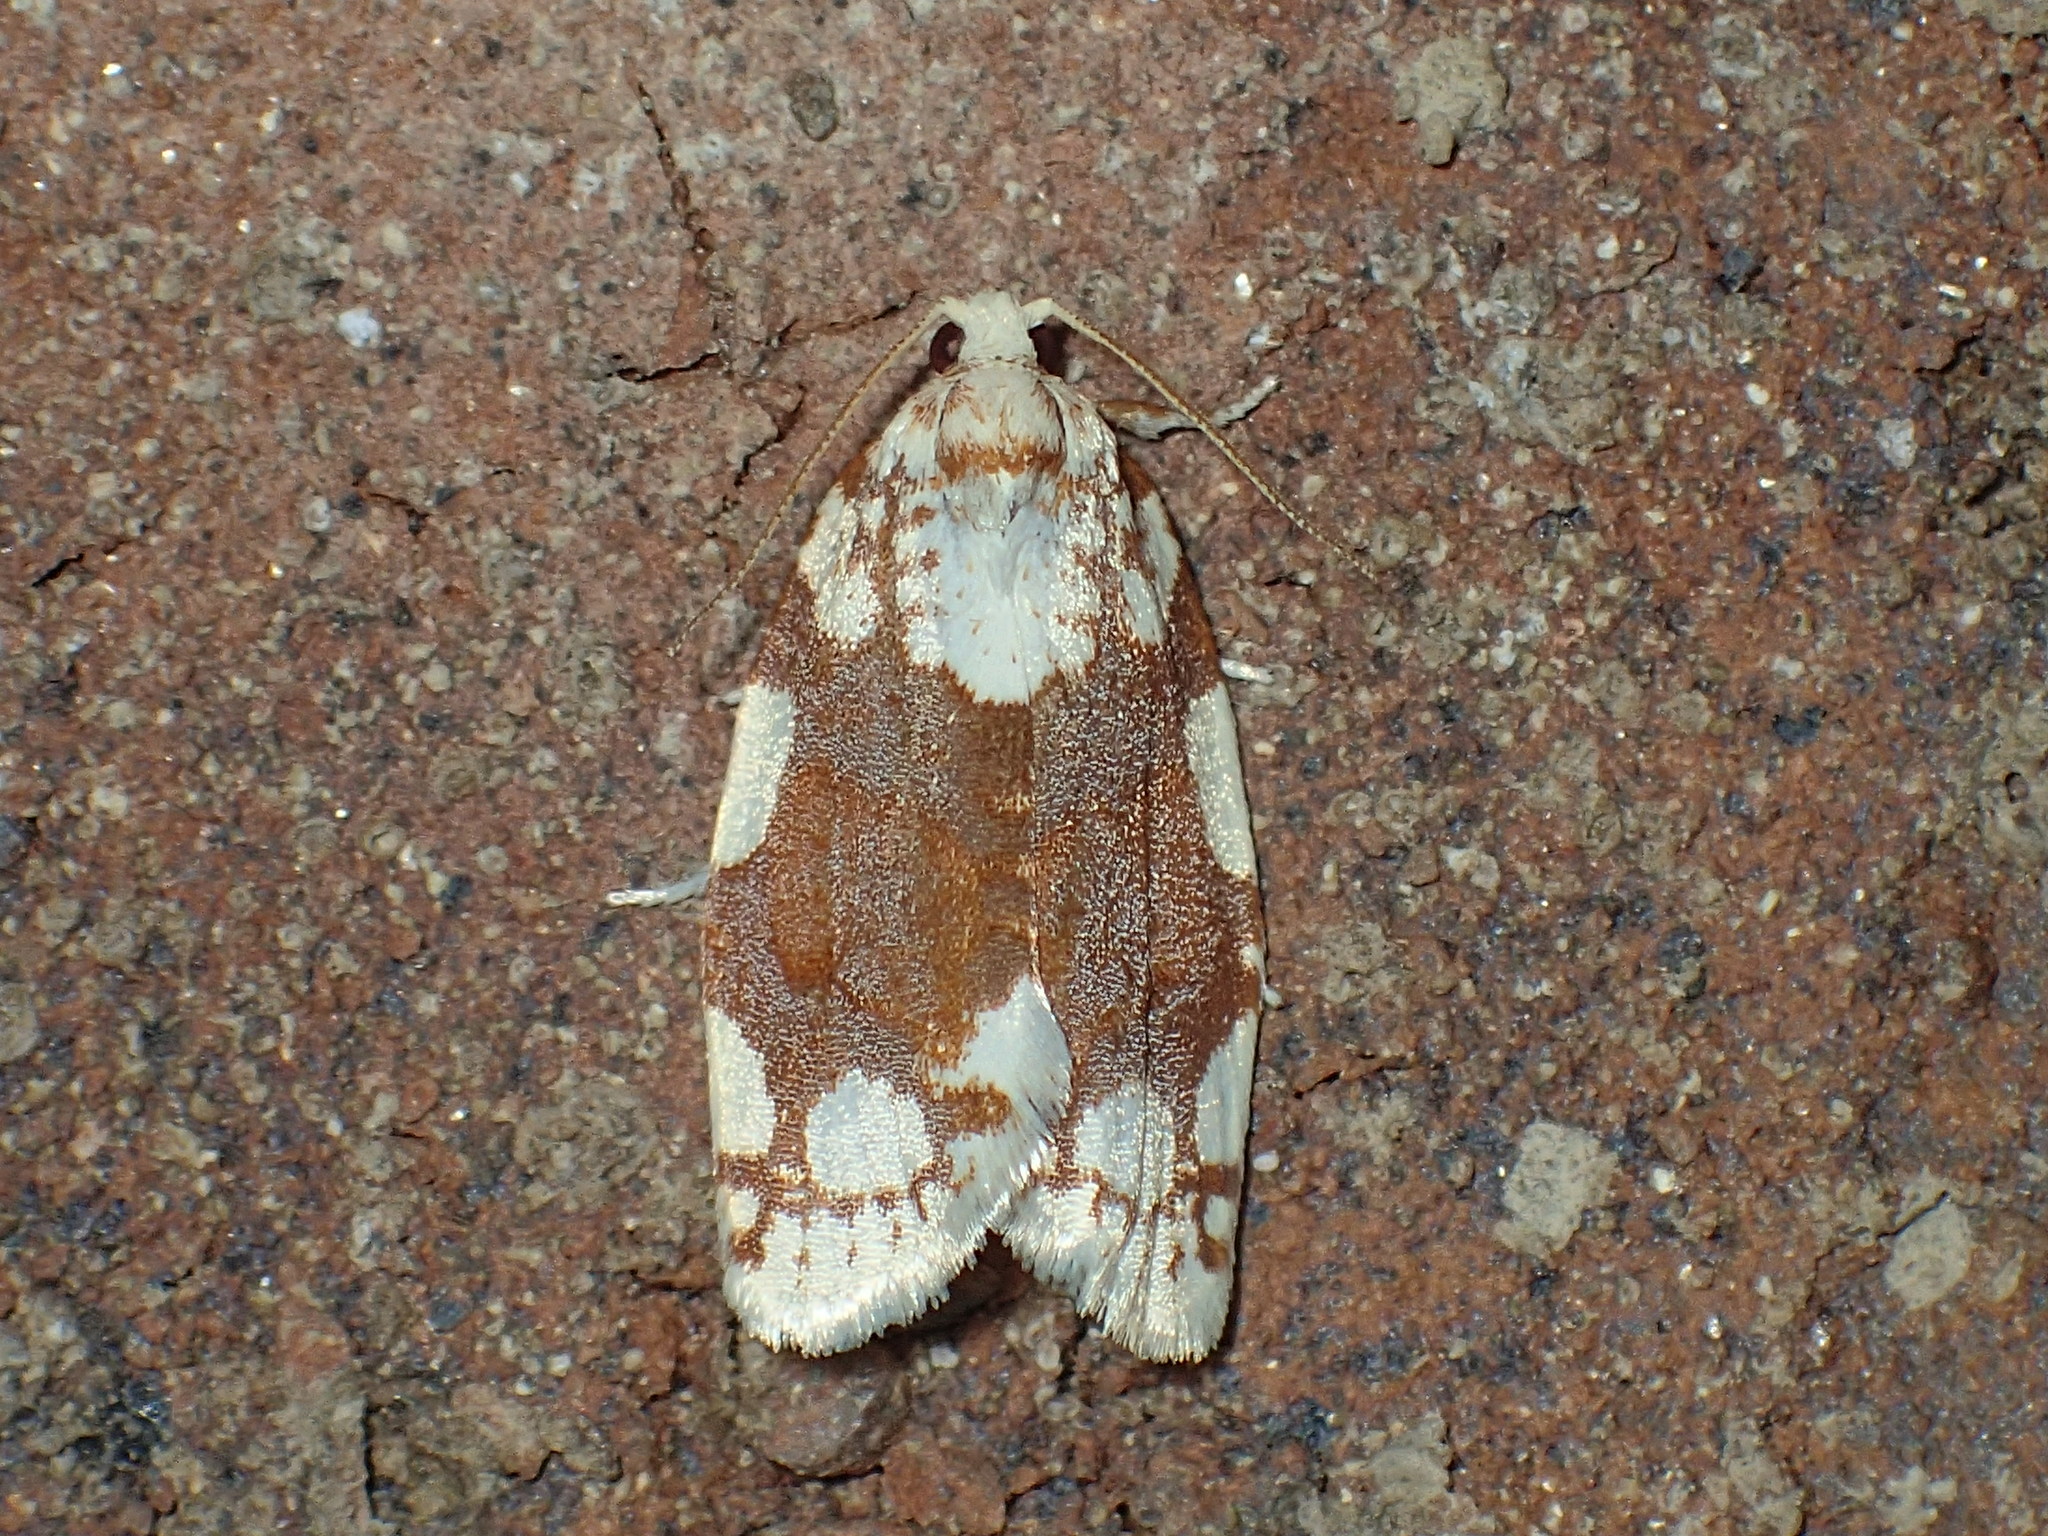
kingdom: Animalia
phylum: Arthropoda
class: Insecta
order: Lepidoptera
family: Tortricidae
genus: Argyrotaenia
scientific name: Argyrotaenia alisellana
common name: White-spotted leafroller moth
